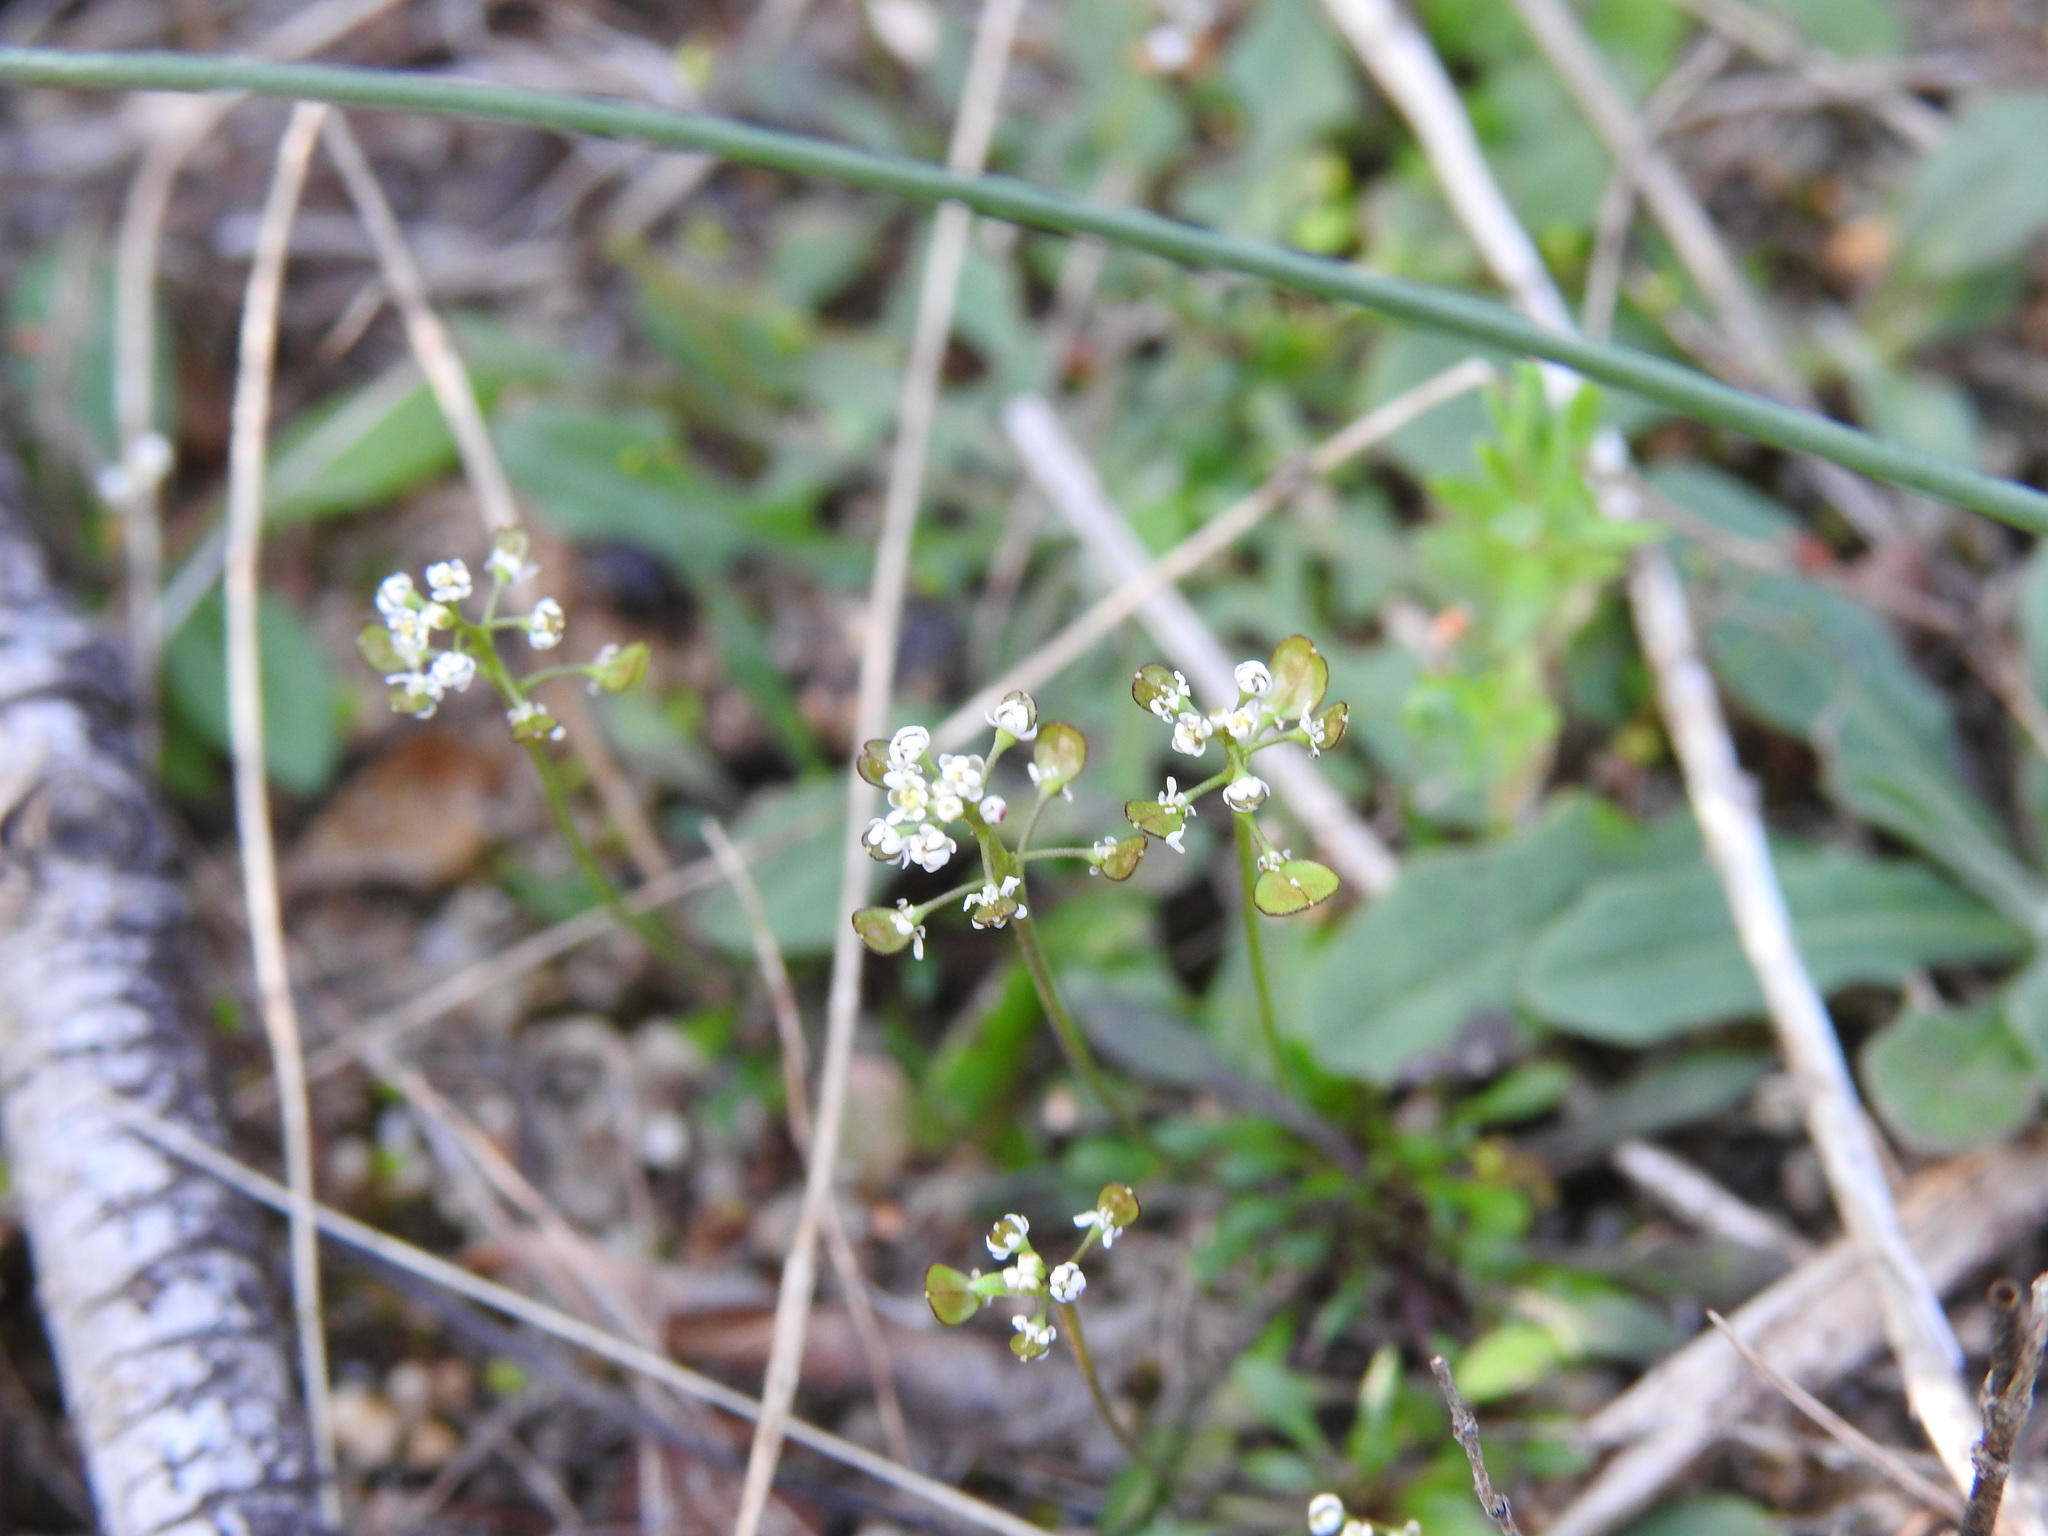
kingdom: Plantae
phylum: Tracheophyta
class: Magnoliopsida
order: Brassicales
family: Brassicaceae
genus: Teesdalia
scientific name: Teesdalia coronopifolia
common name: Lesser shepherdscress
